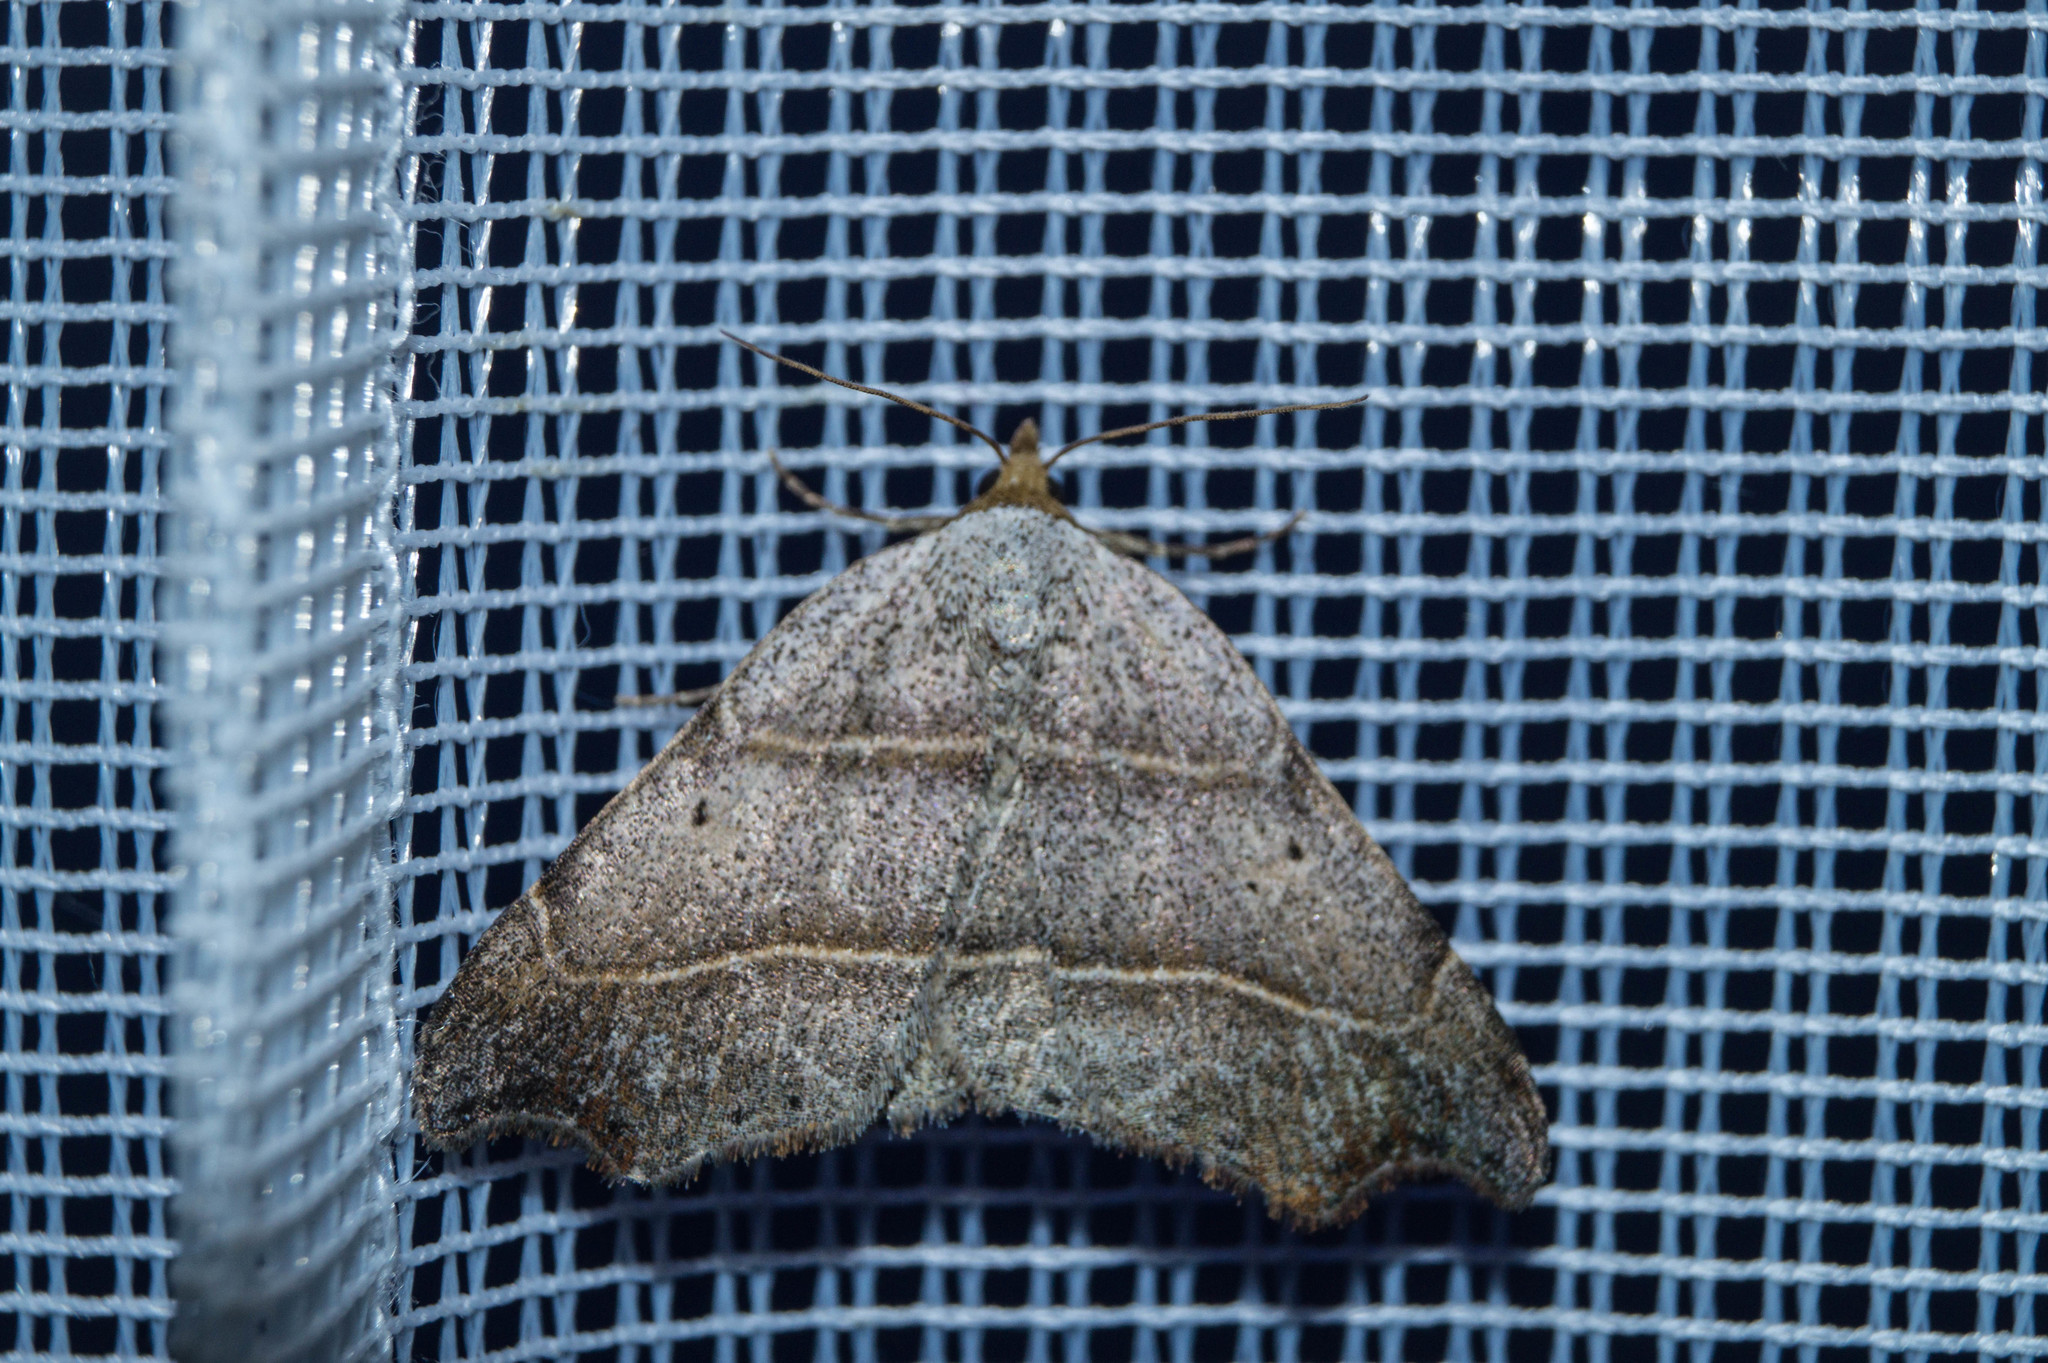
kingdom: Animalia
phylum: Arthropoda
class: Insecta
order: Lepidoptera
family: Erebidae
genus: Laspeyria
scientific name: Laspeyria flexula
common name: Beautiful hook-tip
